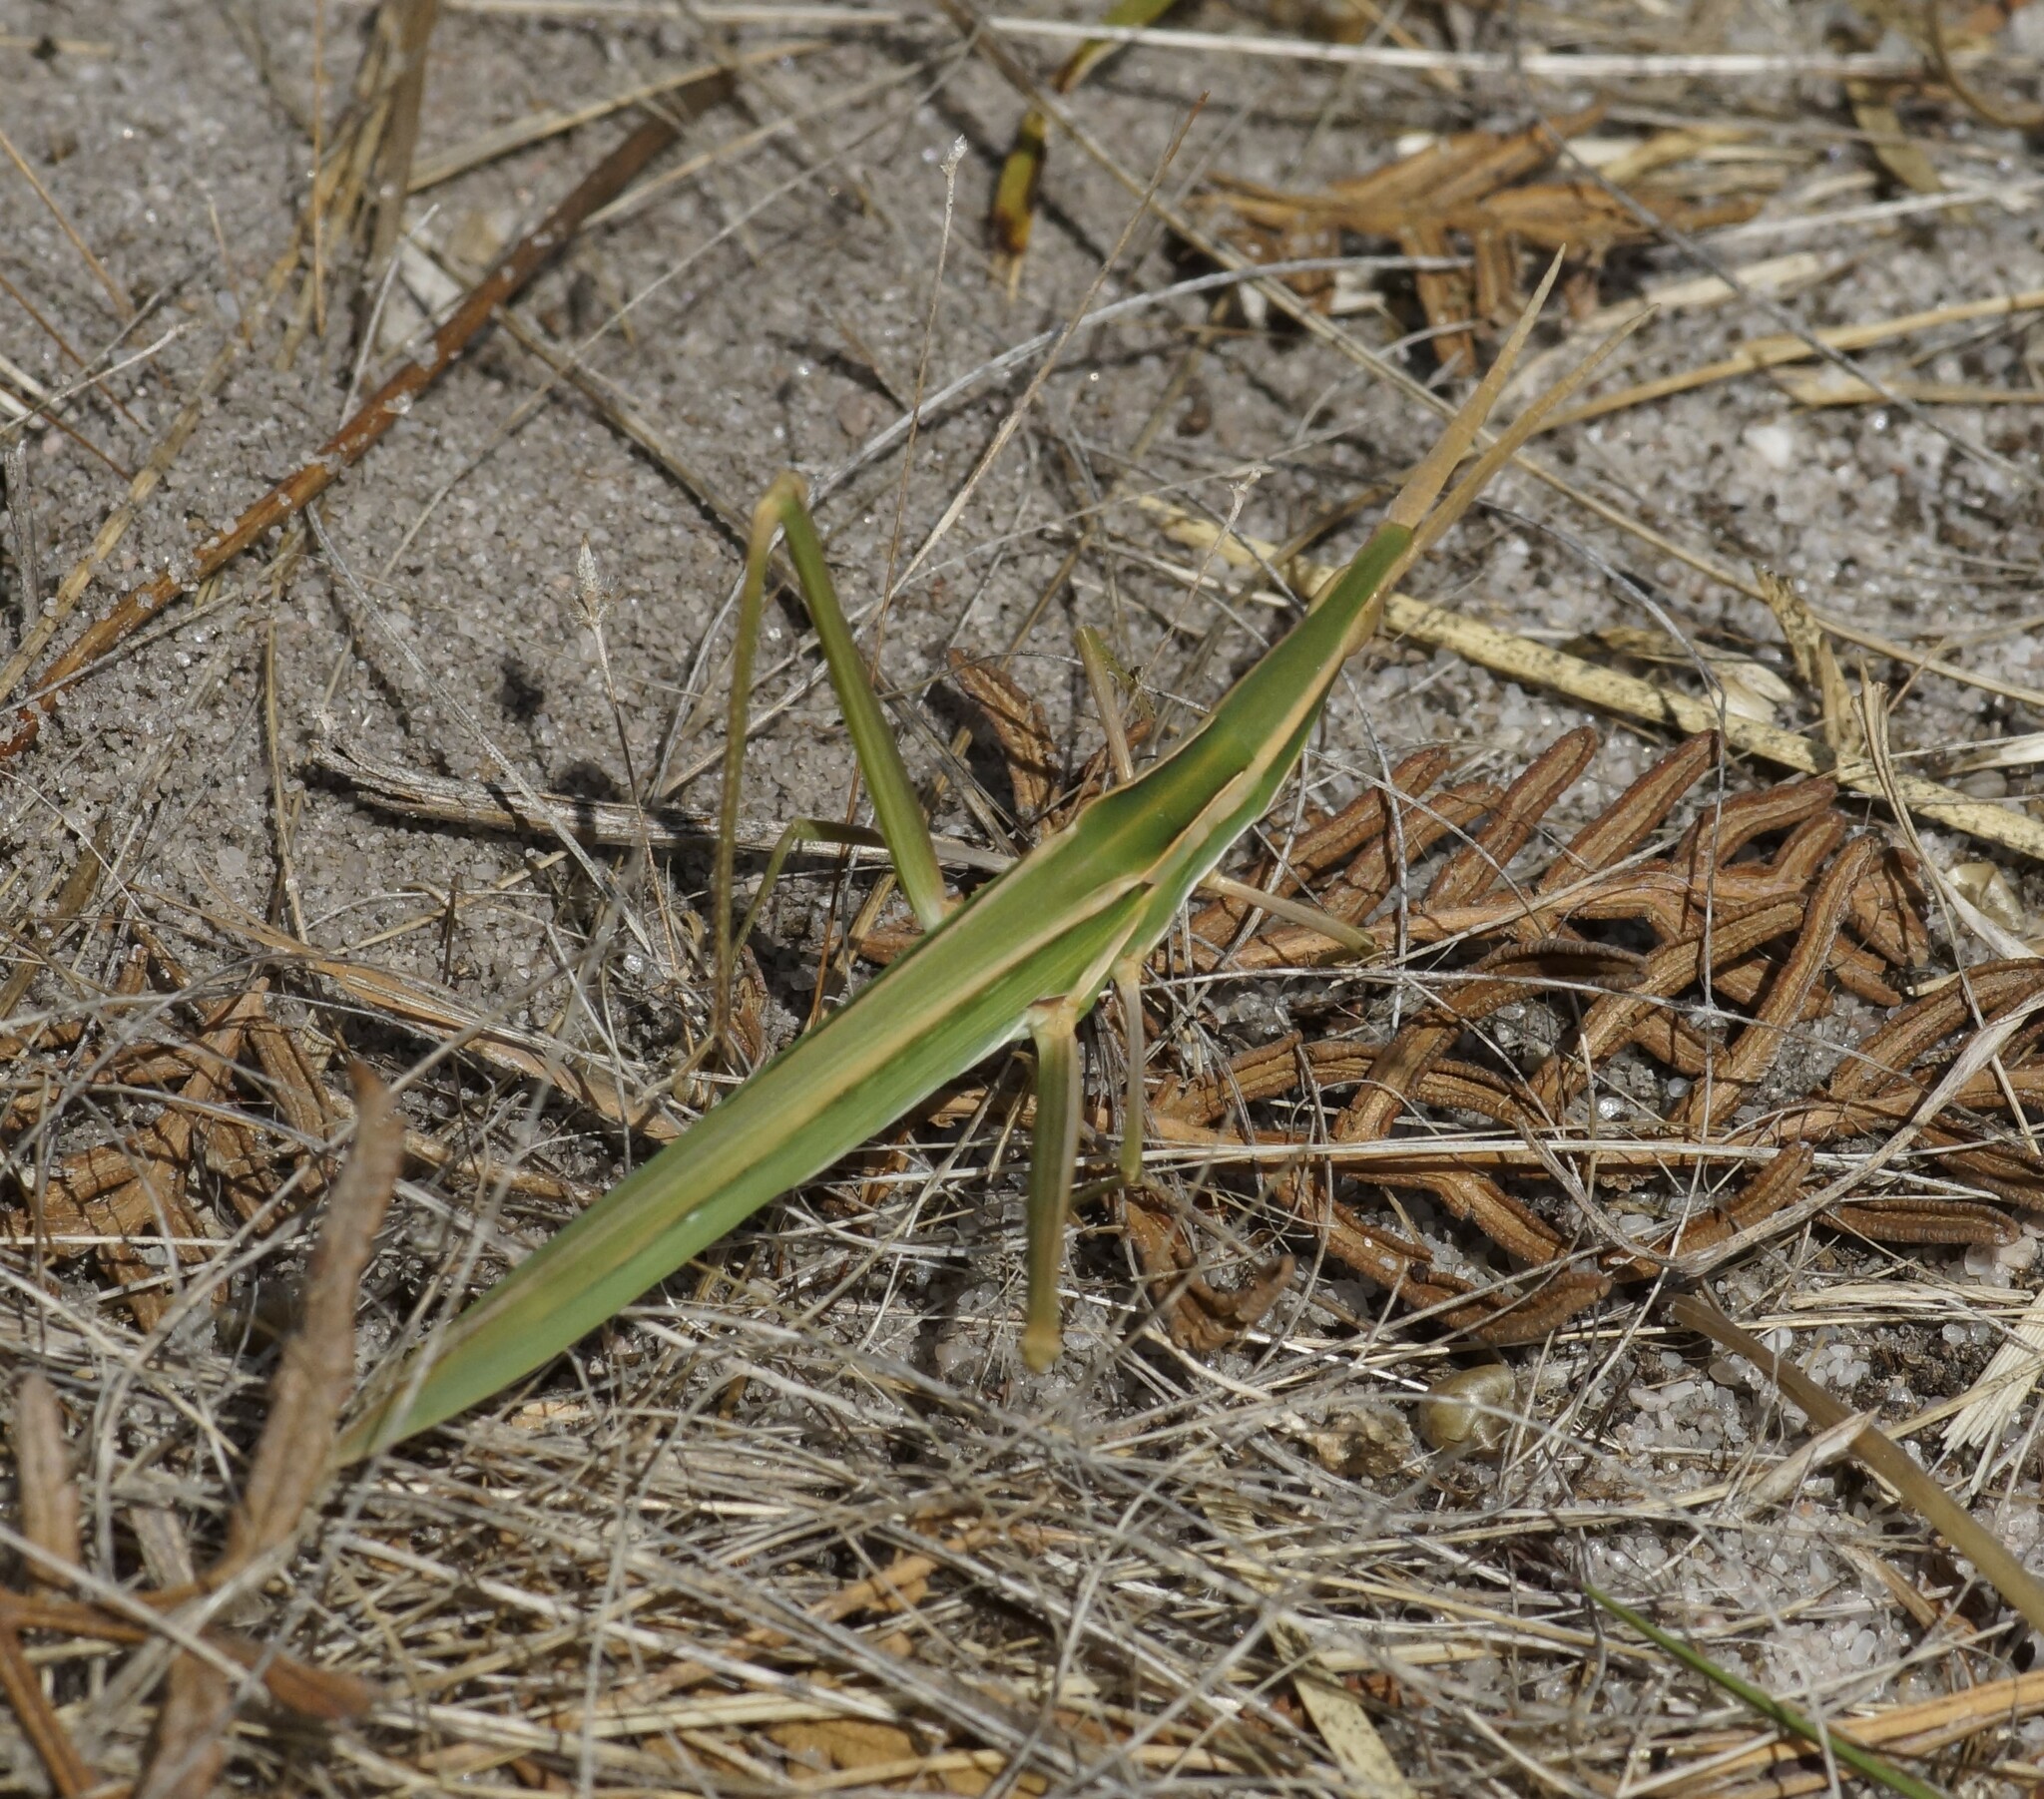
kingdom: Animalia
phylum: Arthropoda
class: Insecta
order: Orthoptera
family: Acrididae
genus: Acrida
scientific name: Acrida conica
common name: Giant green slantface
